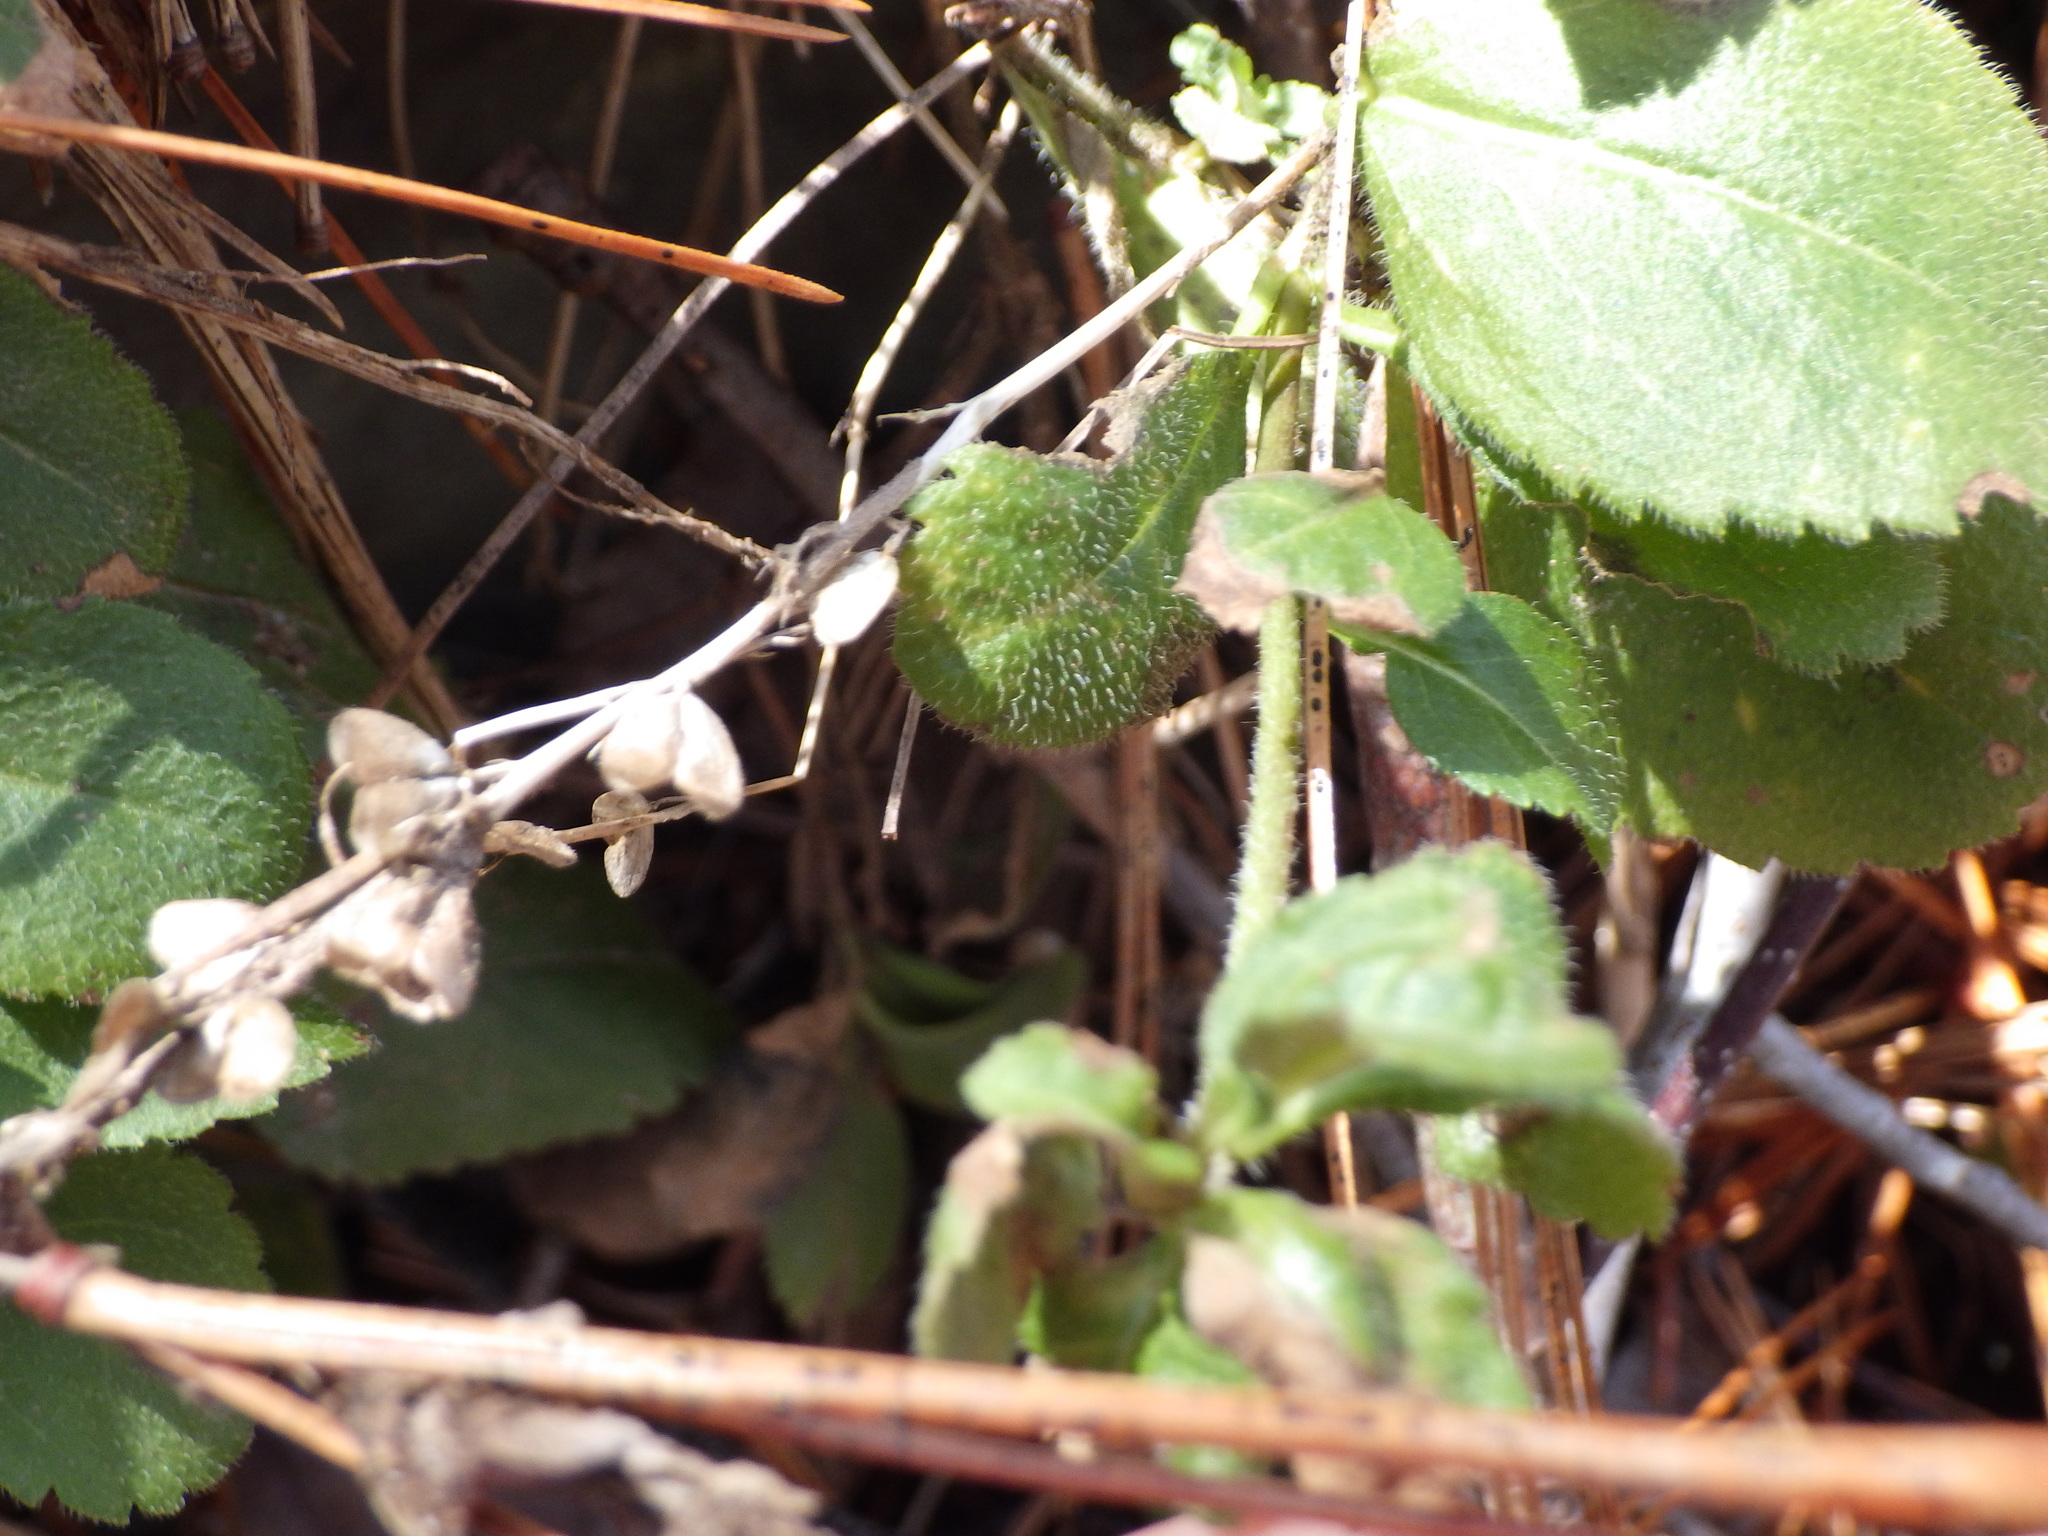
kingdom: Plantae
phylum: Tracheophyta
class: Magnoliopsida
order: Lamiales
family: Plantaginaceae
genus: Veronica
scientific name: Veronica officinalis
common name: Common speedwell
